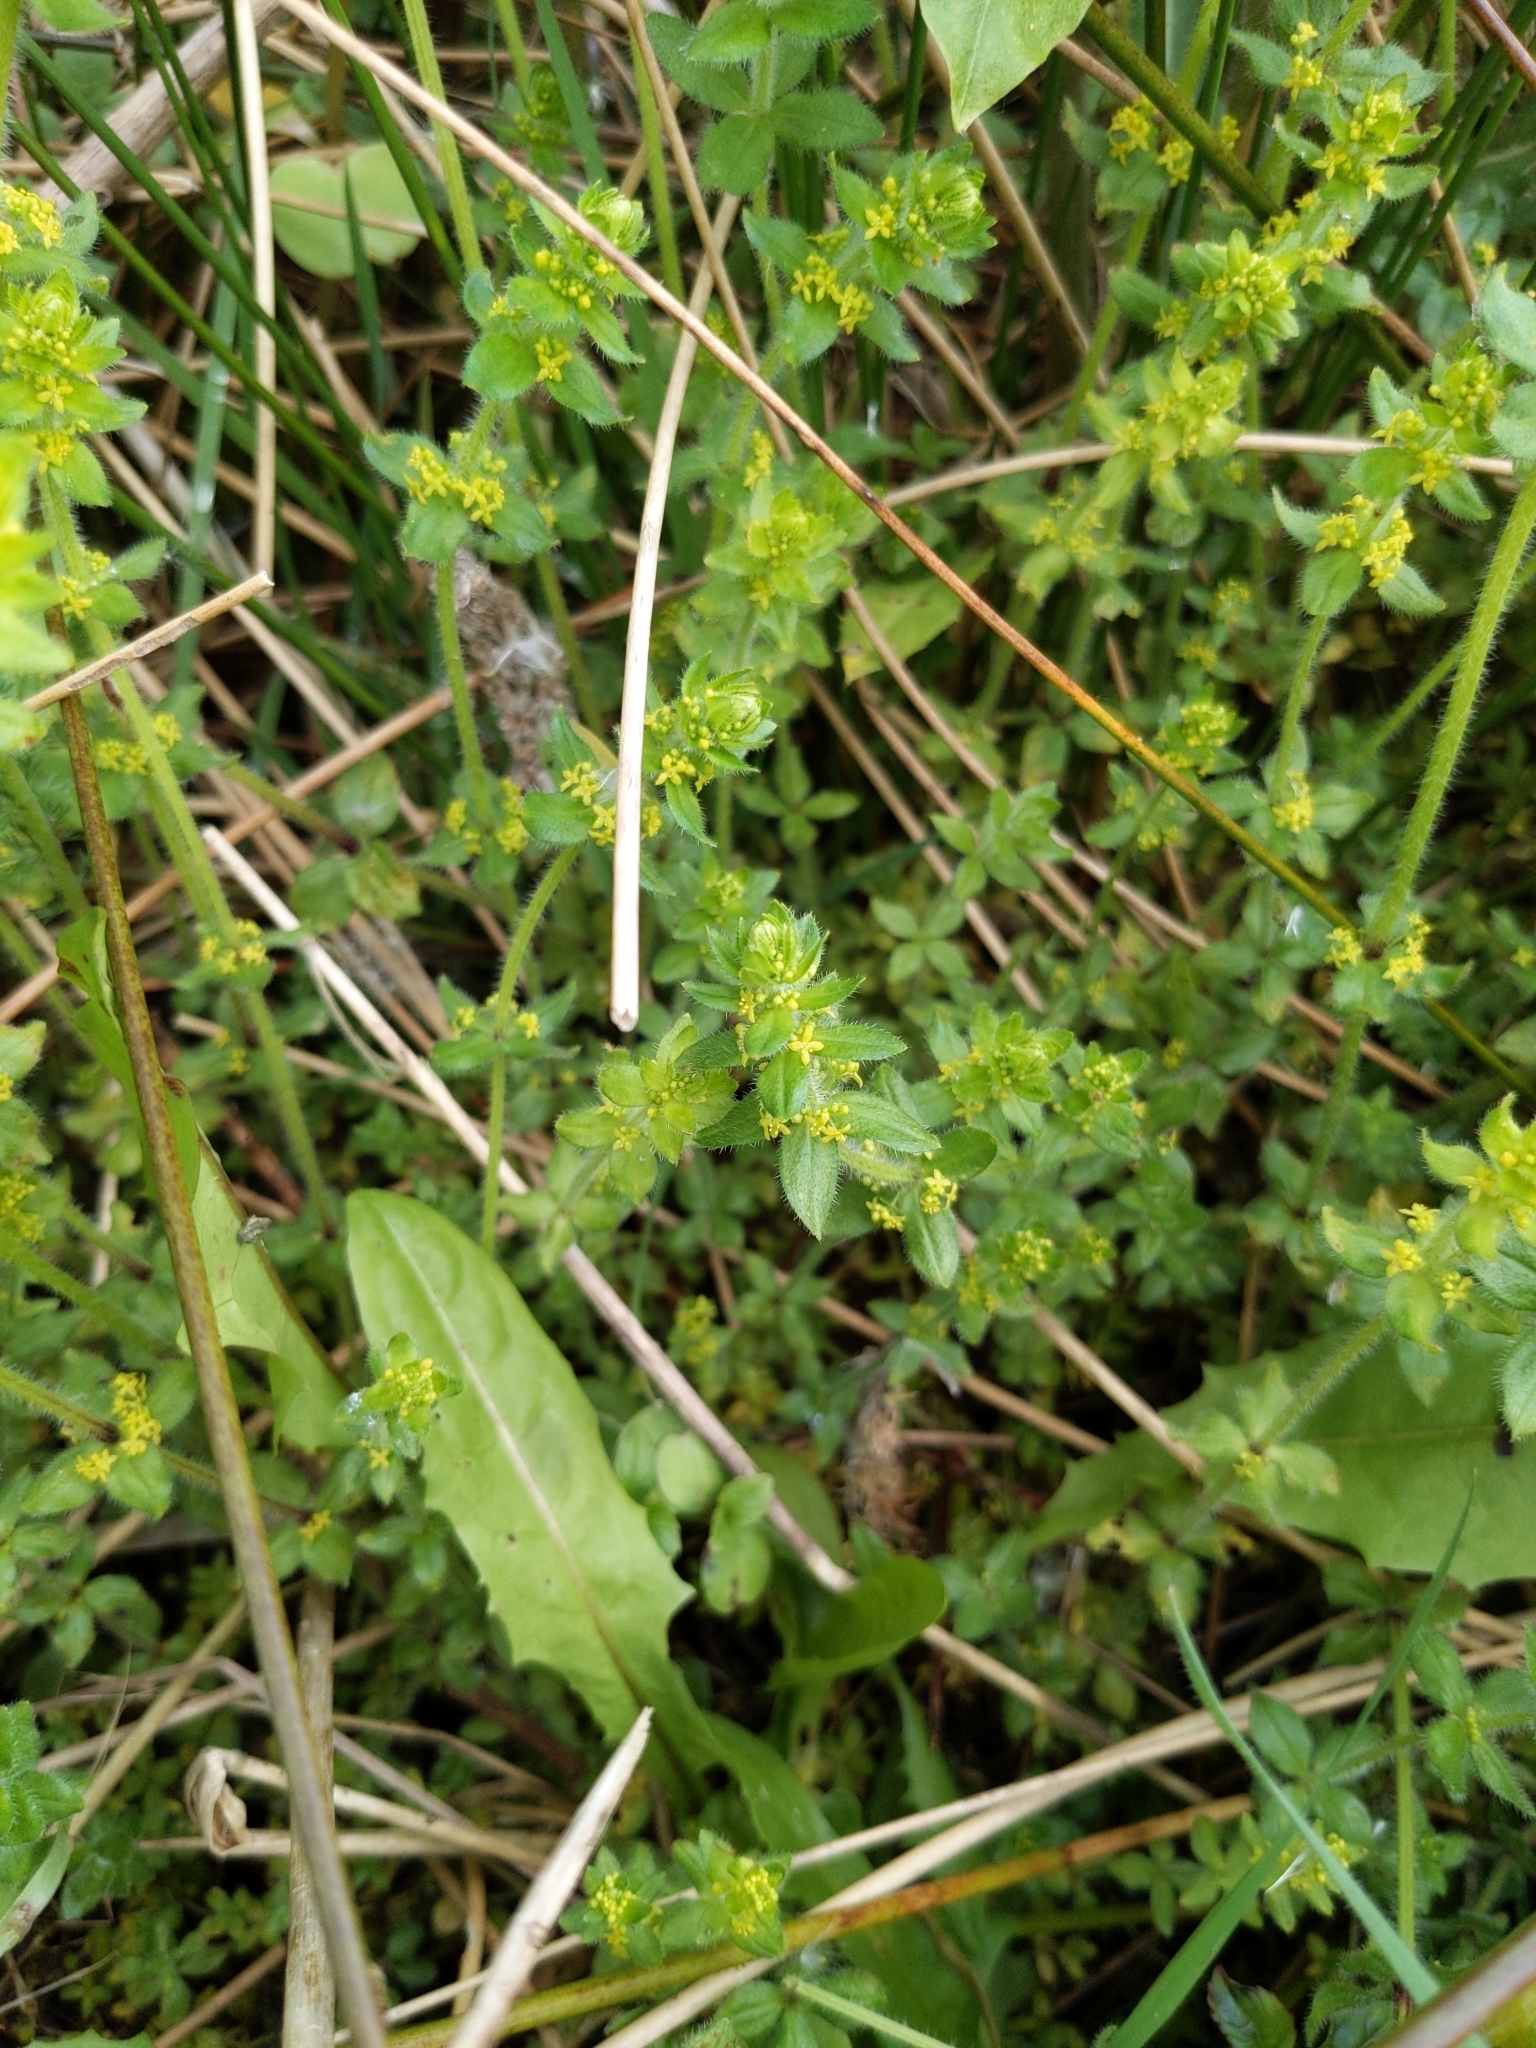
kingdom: Plantae
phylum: Tracheophyta
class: Magnoliopsida
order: Gentianales
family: Rubiaceae
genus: Cruciata
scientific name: Cruciata laevipes
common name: Crosswort
